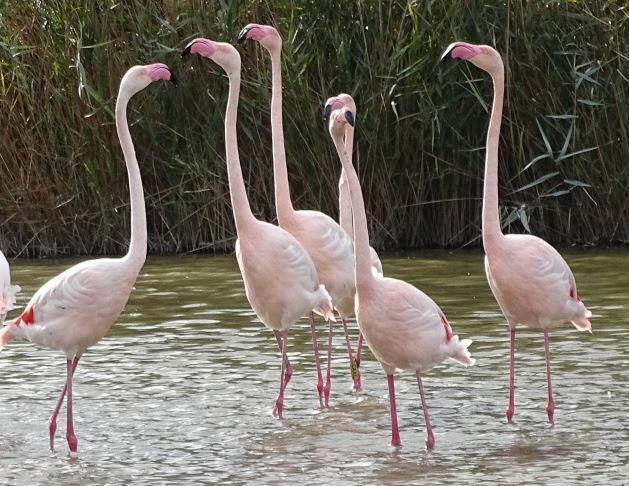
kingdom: Animalia
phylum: Chordata
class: Aves
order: Phoenicopteriformes
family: Phoenicopteridae
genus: Phoenicopterus
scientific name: Phoenicopterus roseus
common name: Greater flamingo
